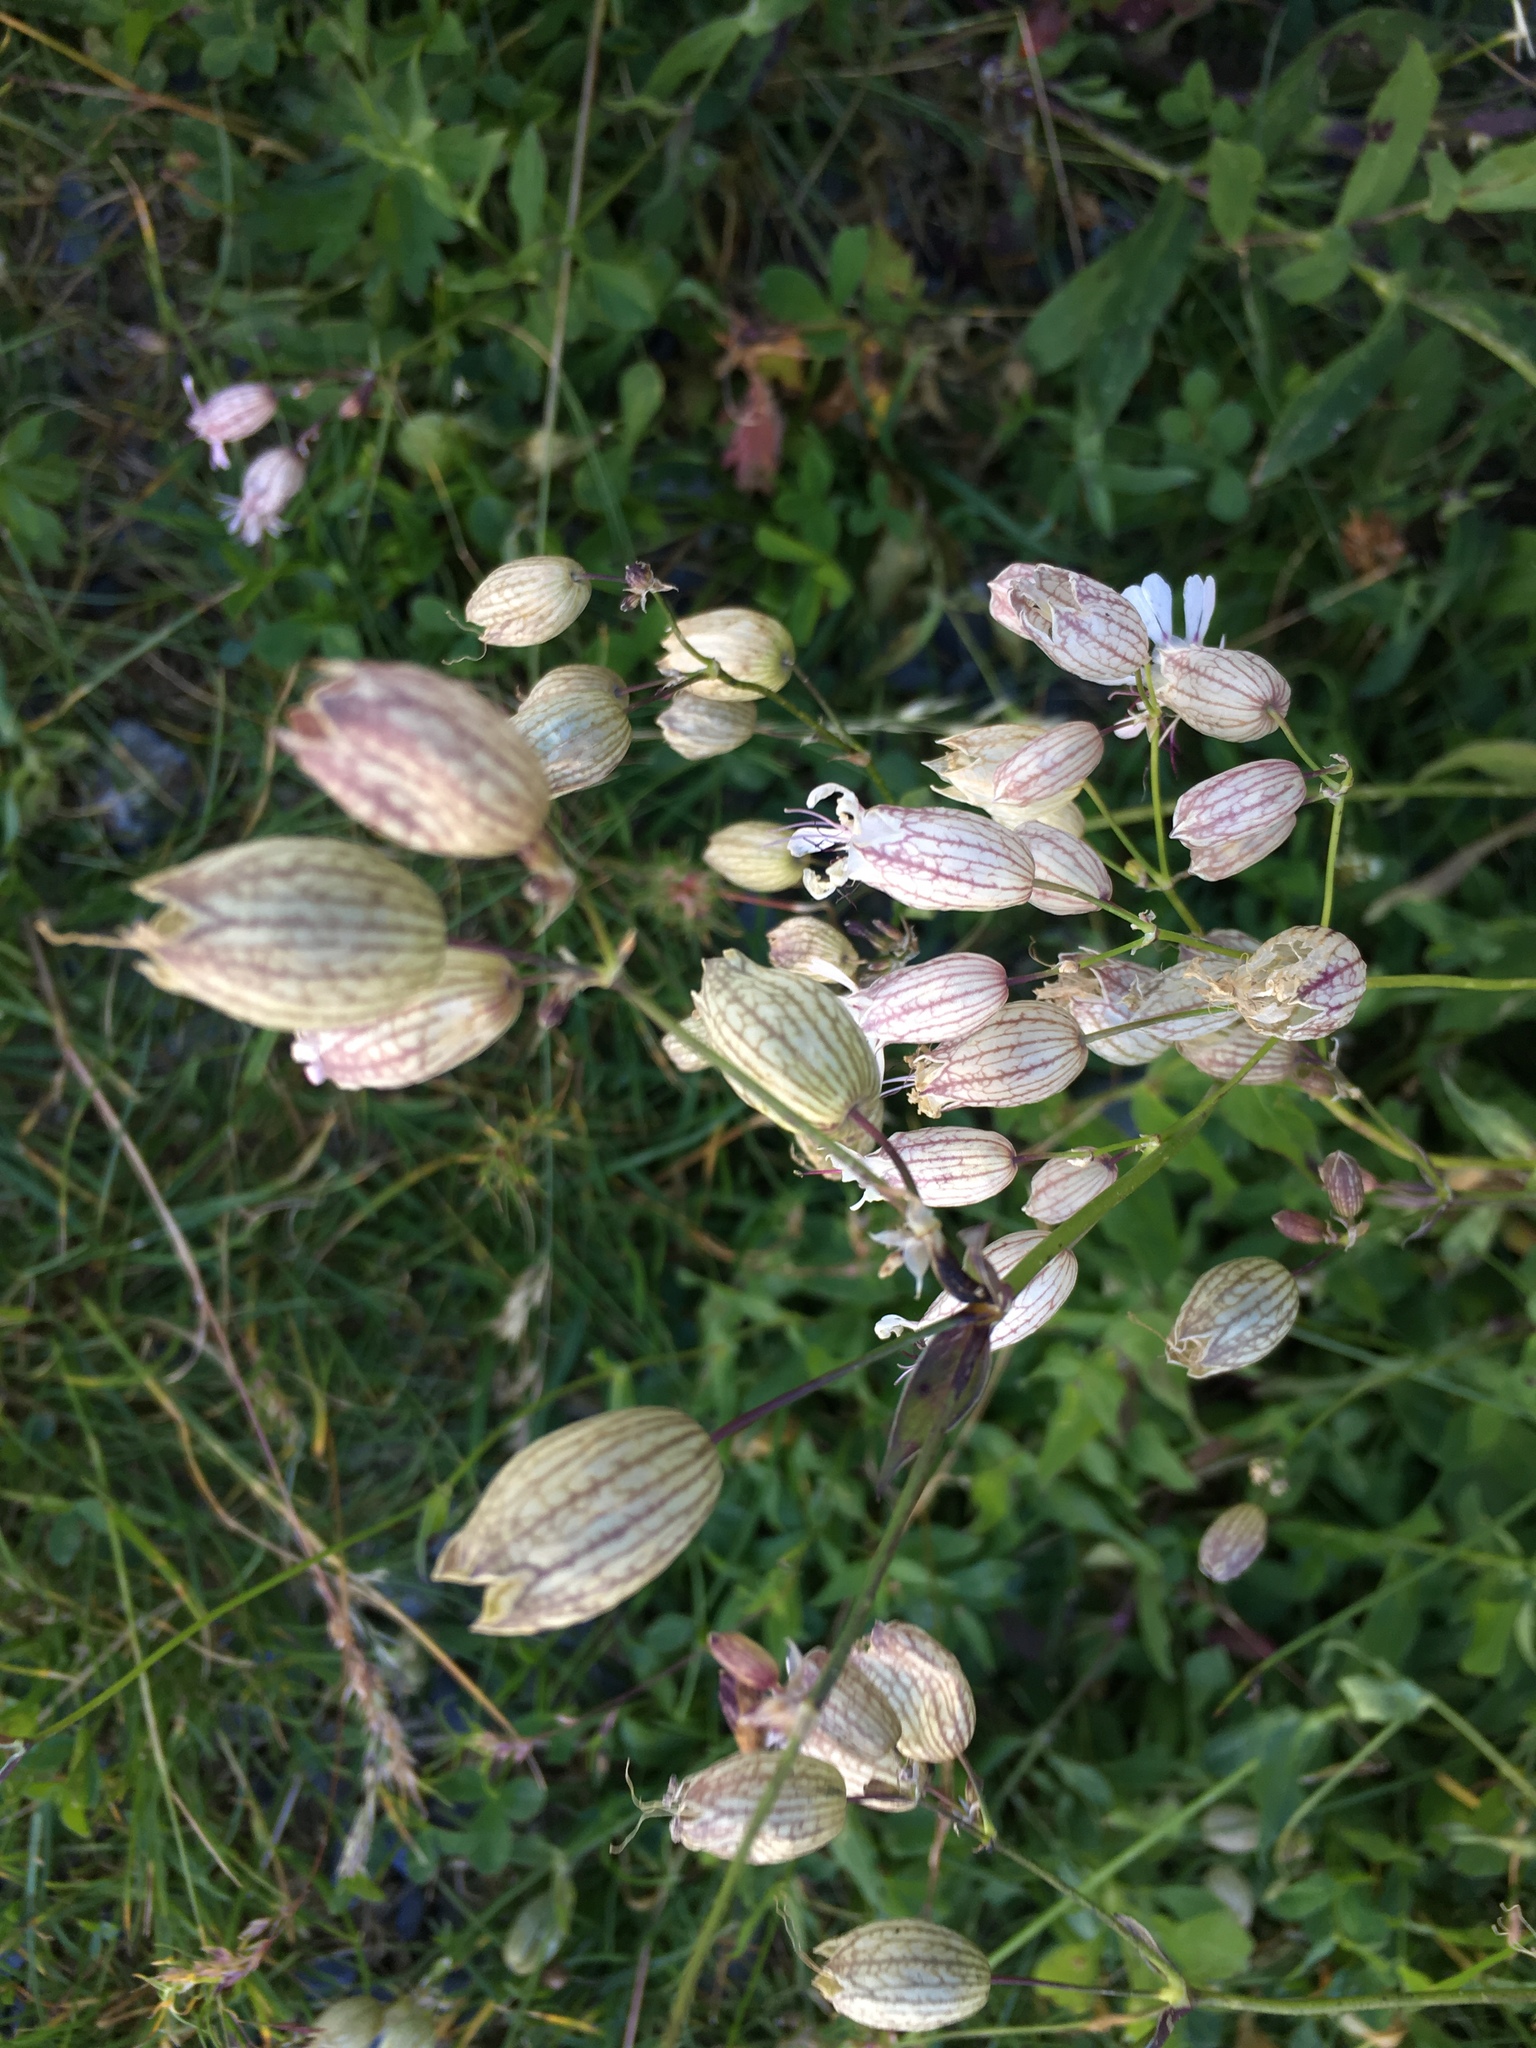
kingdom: Plantae
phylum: Tracheophyta
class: Magnoliopsida
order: Caryophyllales
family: Caryophyllaceae
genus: Silene
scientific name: Silene vulgaris
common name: Bladder campion
